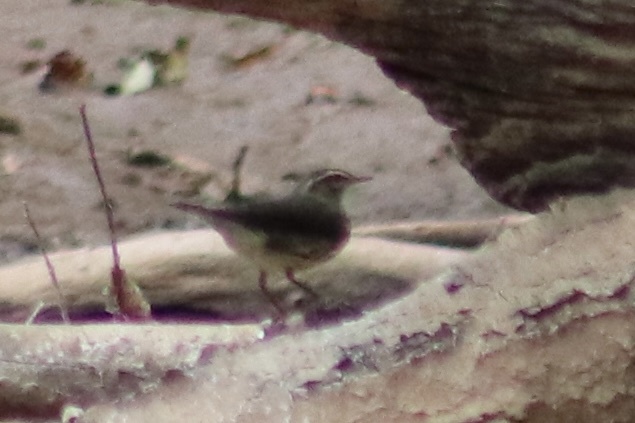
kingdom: Animalia
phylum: Chordata
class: Aves
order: Passeriformes
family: Parulidae
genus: Parkesia
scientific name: Parkesia noveboracensis
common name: Northern waterthrush
